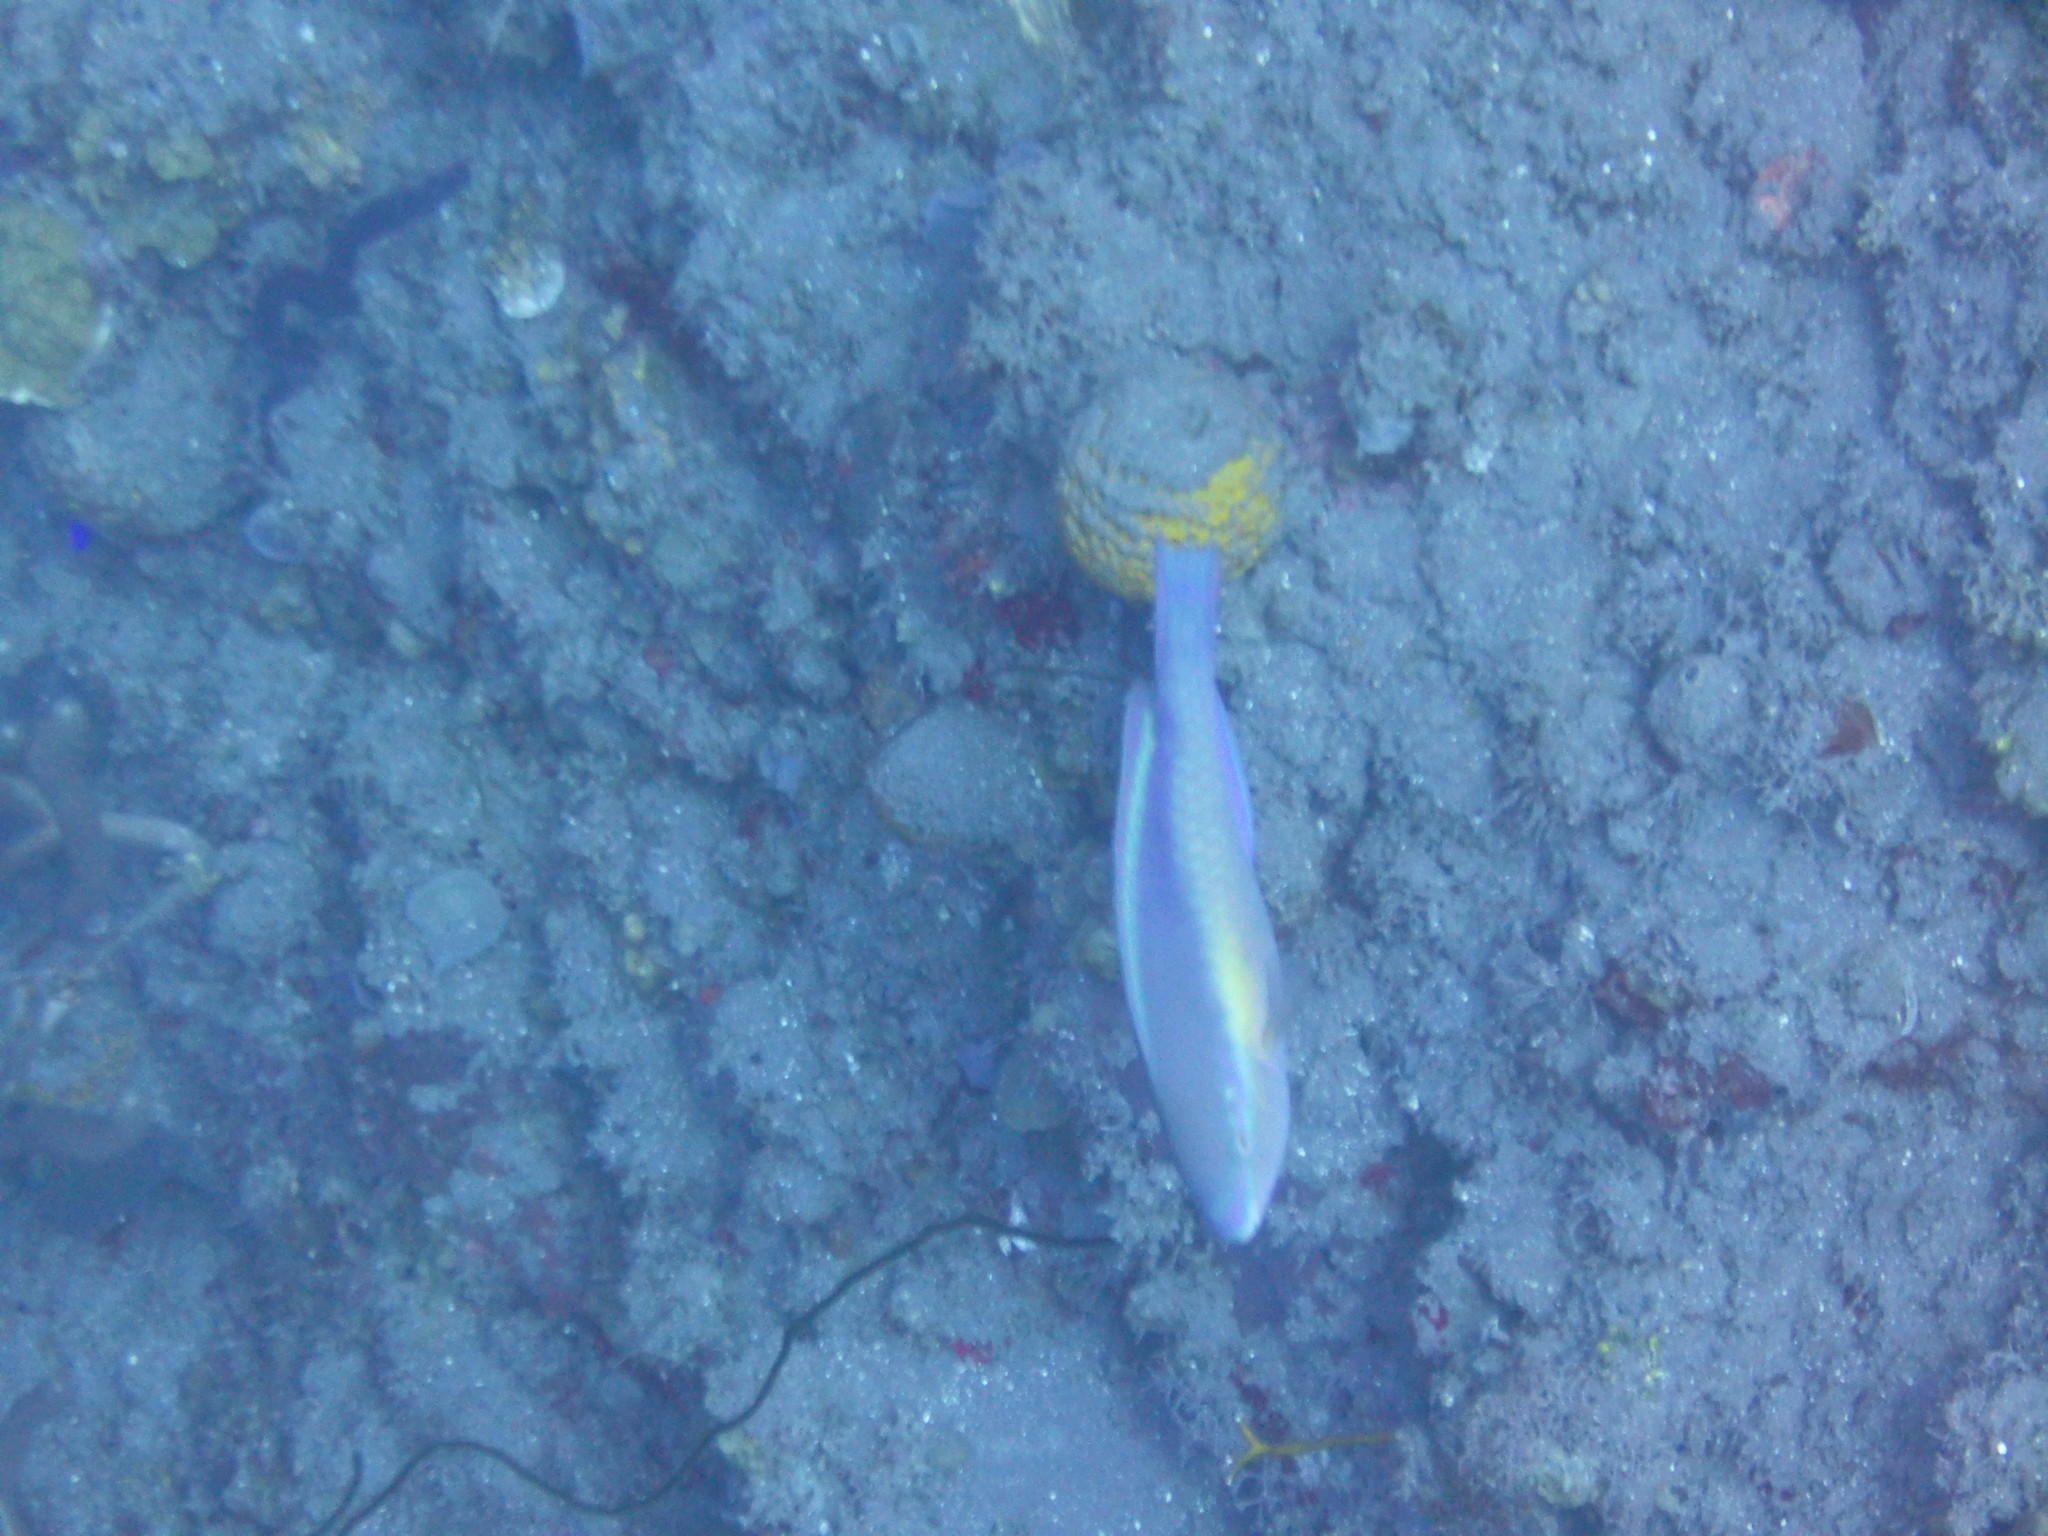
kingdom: Animalia
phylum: Chordata
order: Perciformes
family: Scaridae
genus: Scarus
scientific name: Scarus taeniopterus
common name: Princess parrotfish
